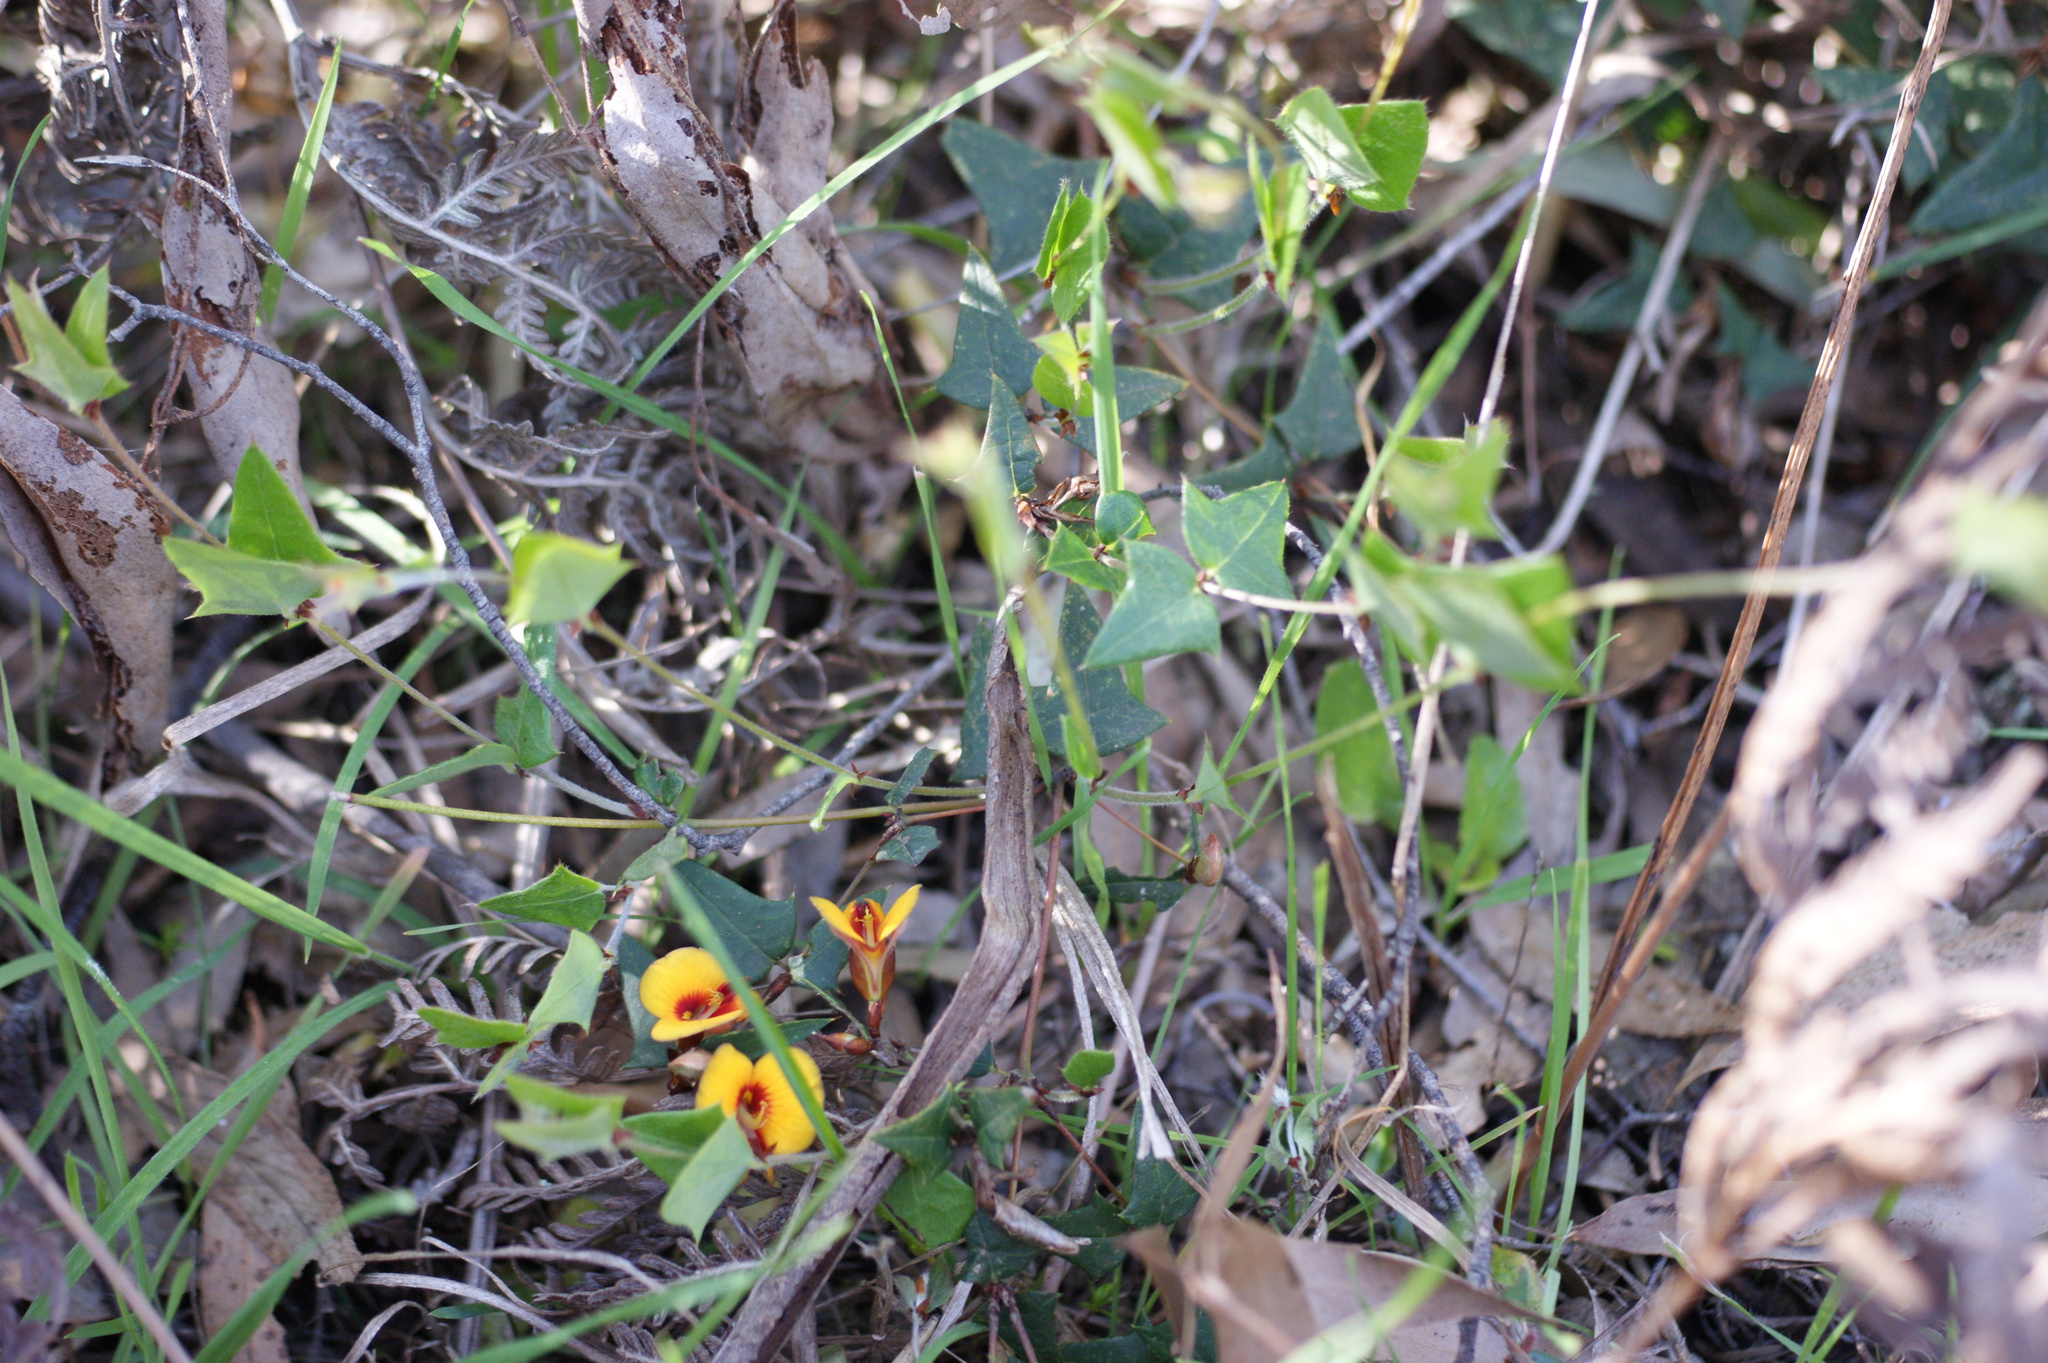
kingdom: Plantae
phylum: Tracheophyta
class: Magnoliopsida
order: Fabales
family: Fabaceae
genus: Platylobium
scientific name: Platylobium obtusangulum
